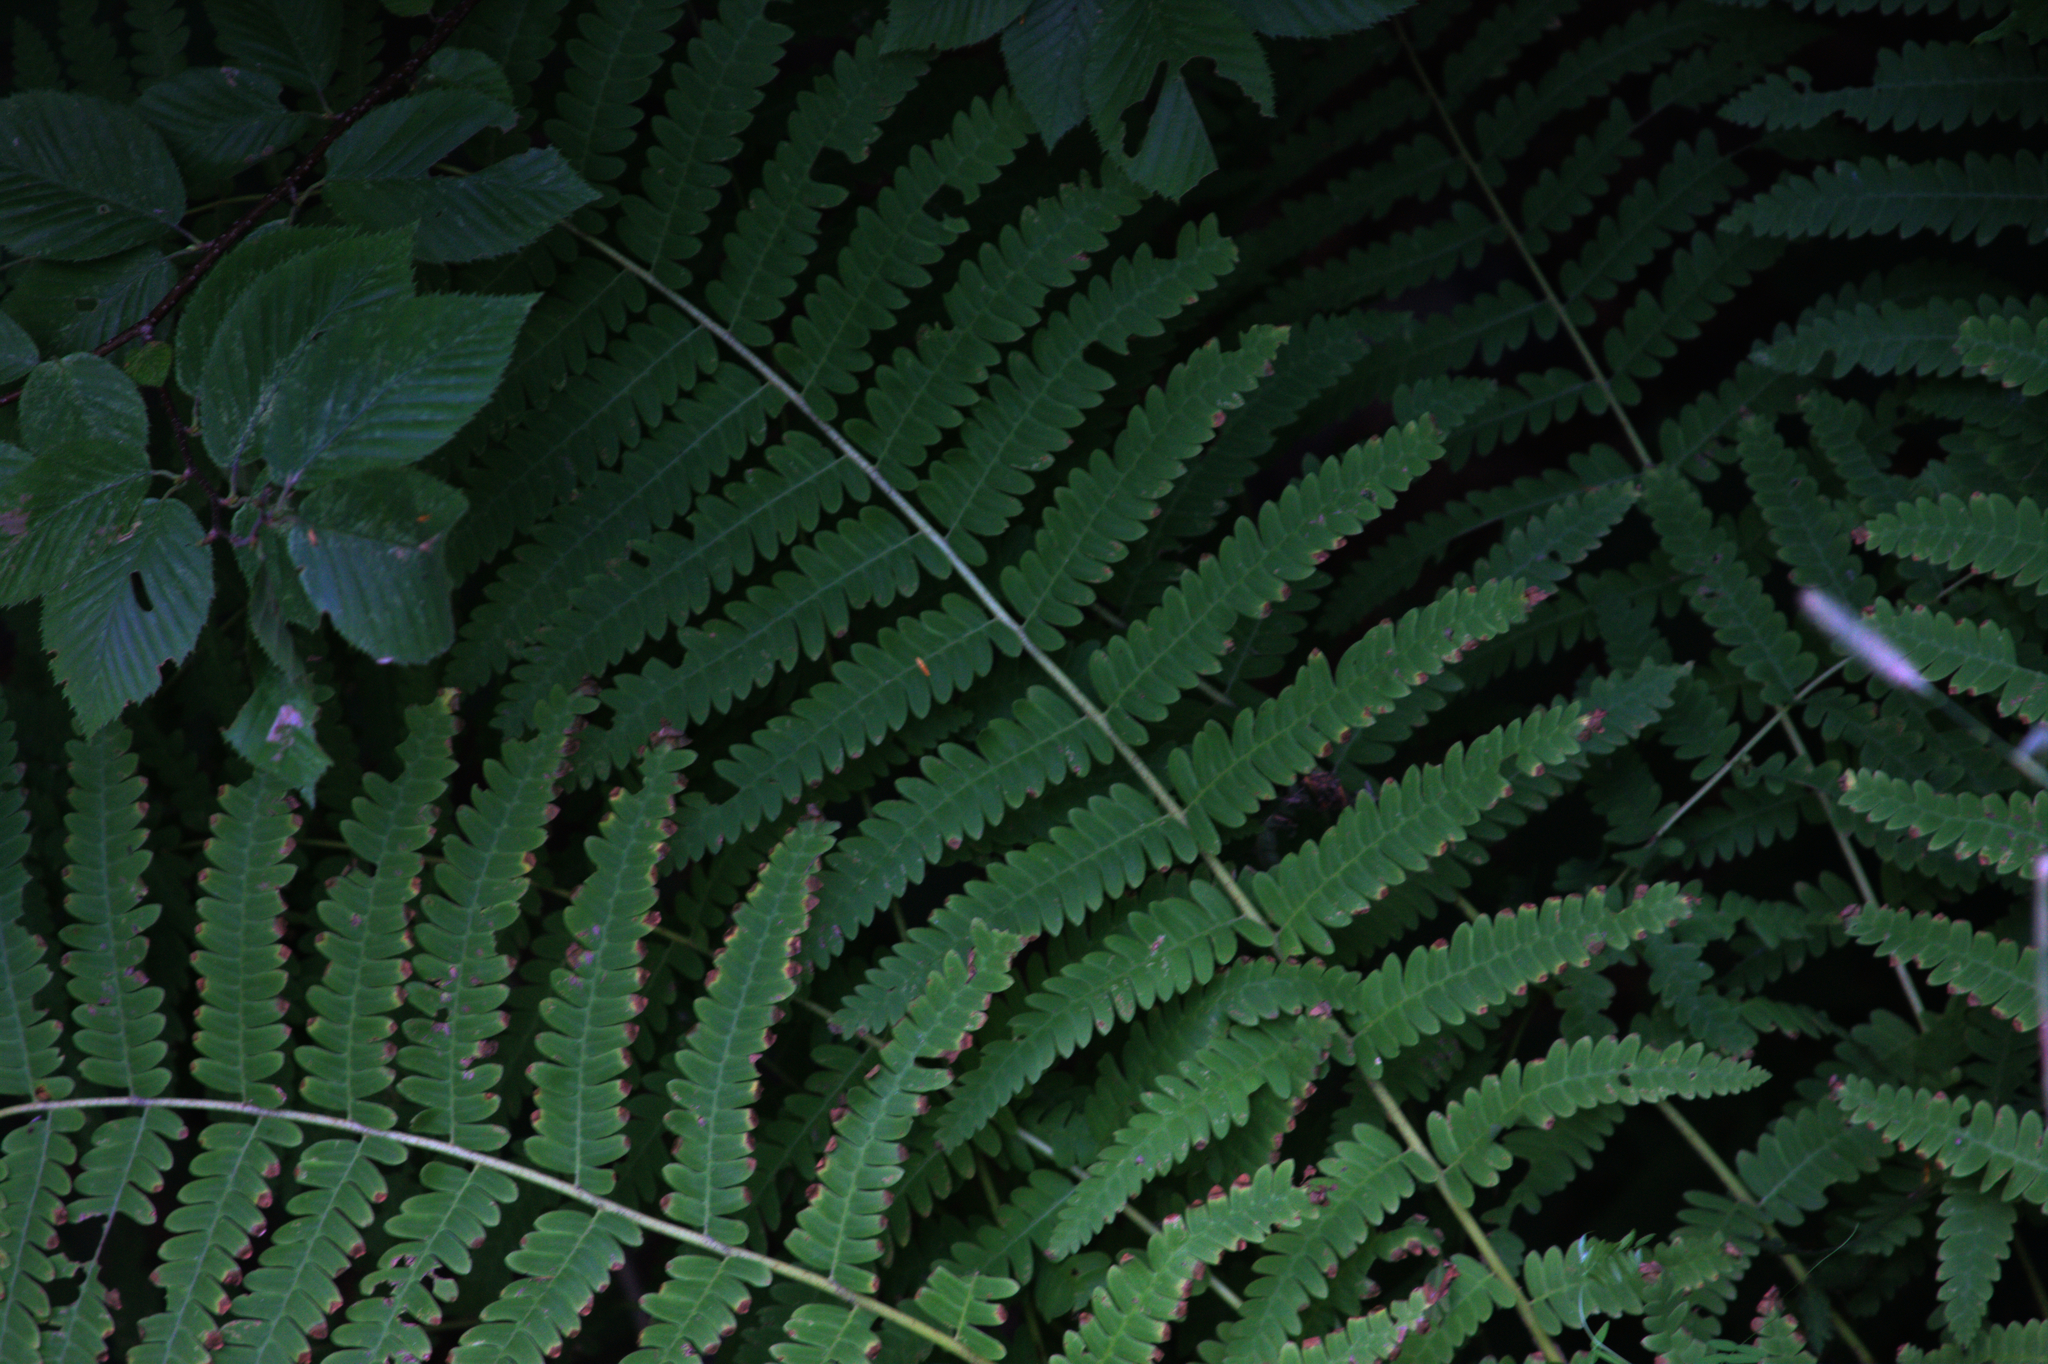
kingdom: Plantae
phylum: Tracheophyta
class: Polypodiopsida
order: Osmundales
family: Osmundaceae
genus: Claytosmunda
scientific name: Claytosmunda claytoniana
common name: Clayton's fern
